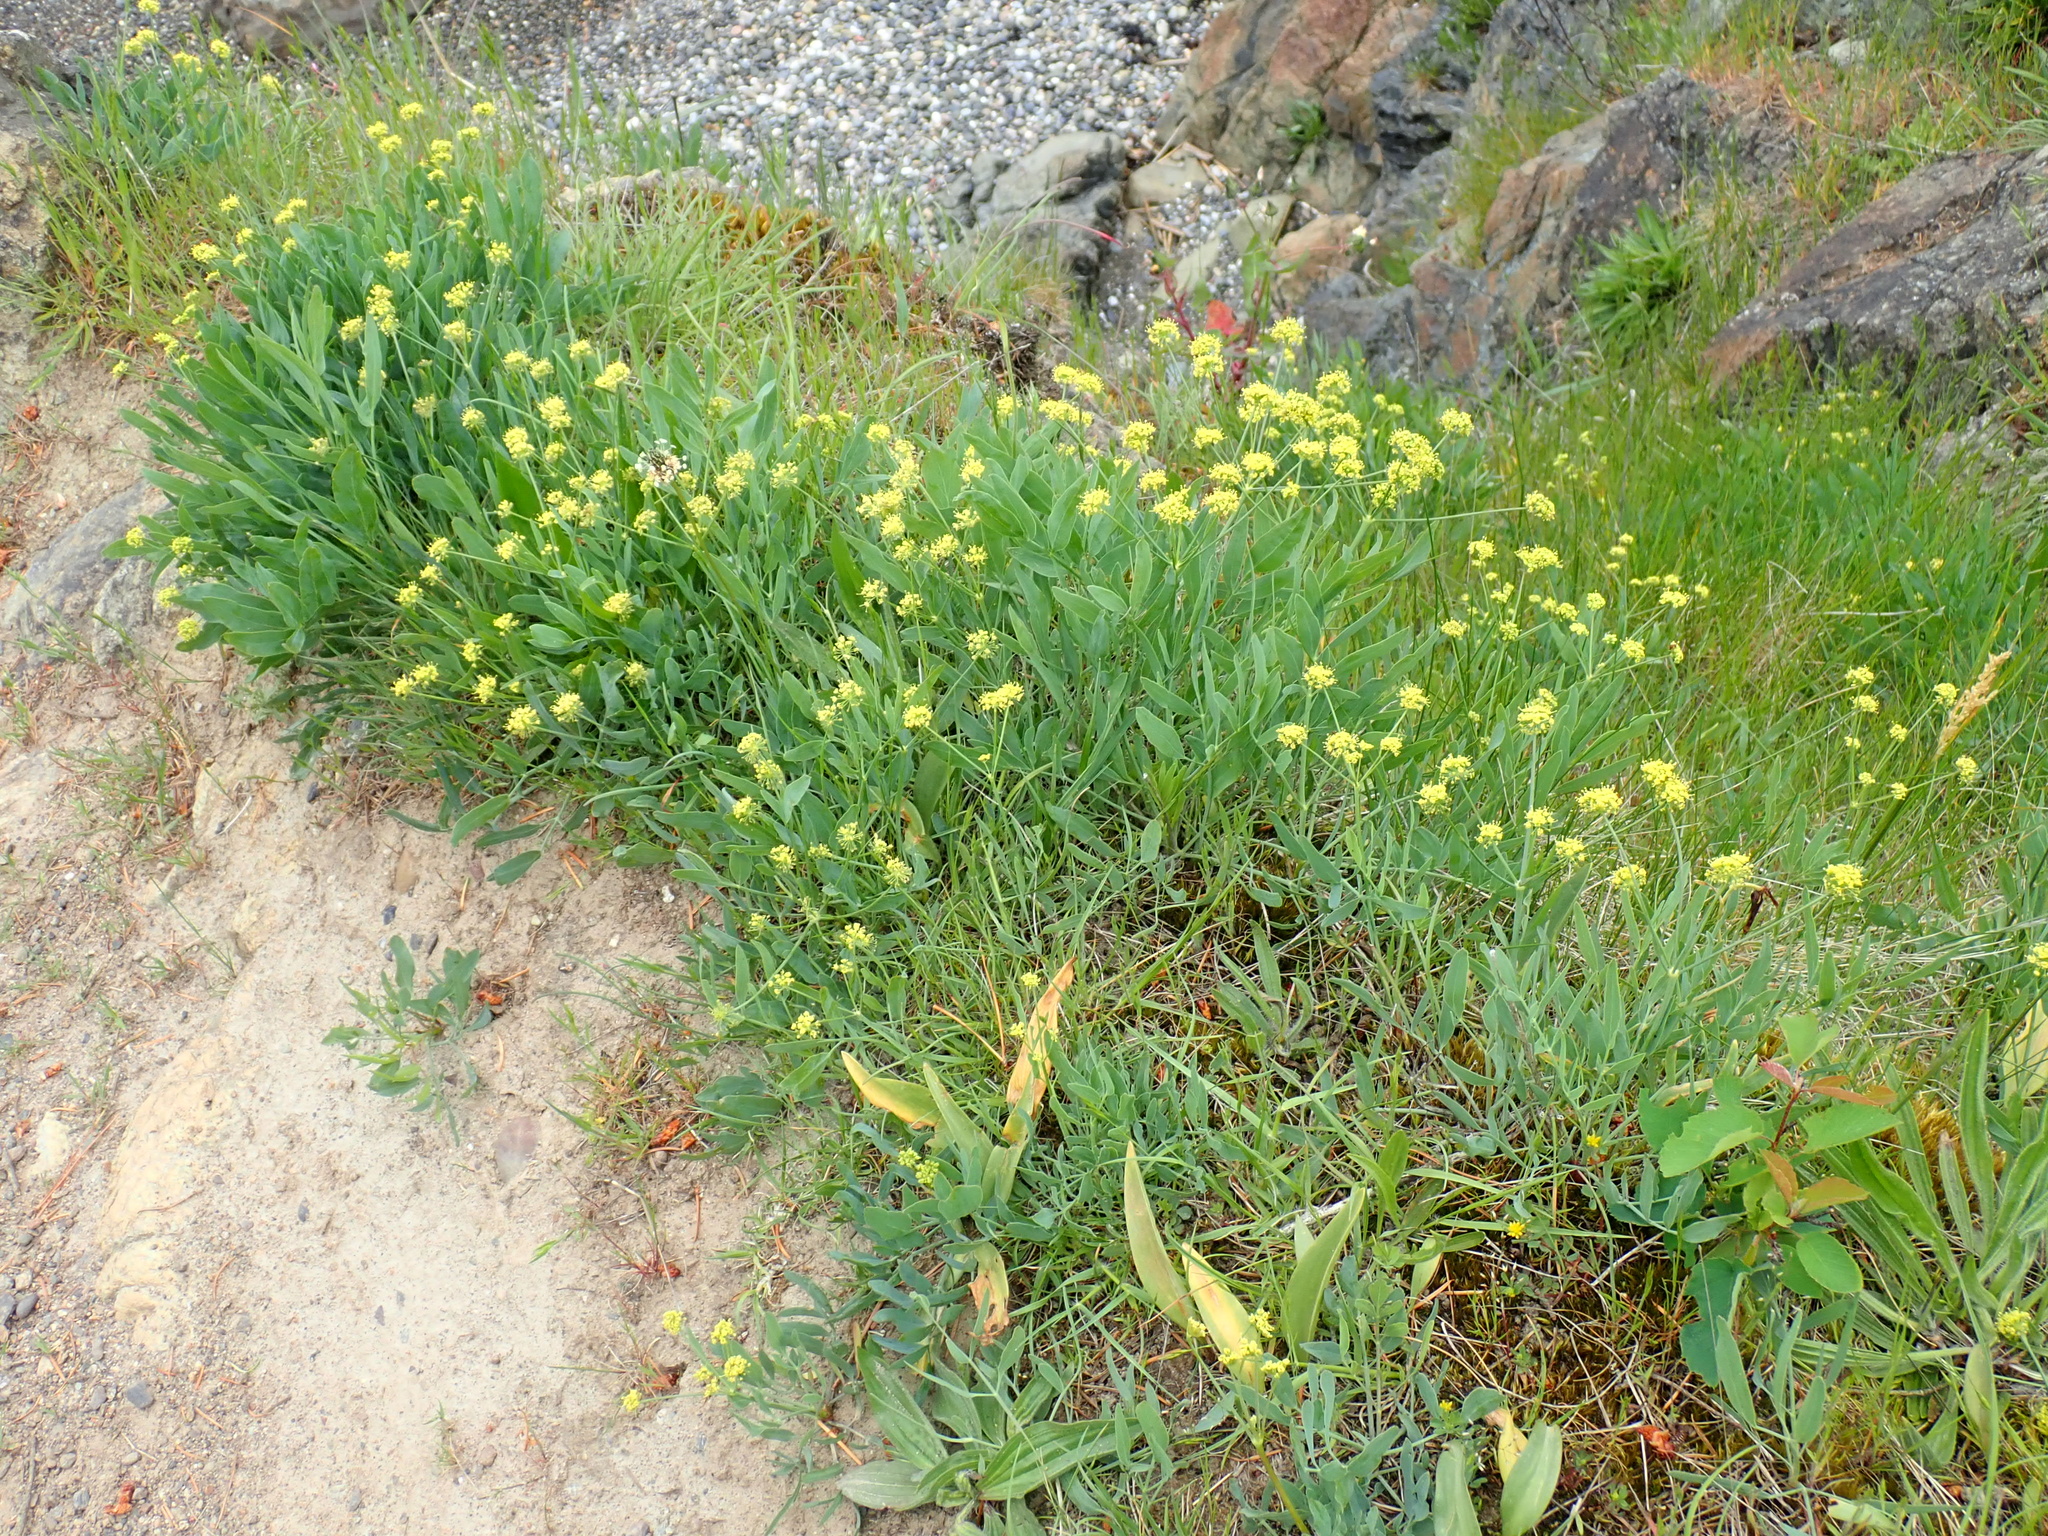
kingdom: Plantae
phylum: Tracheophyta
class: Magnoliopsida
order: Apiales
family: Apiaceae
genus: Lomatium
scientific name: Lomatium nudicaule
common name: Pestle lomatium
